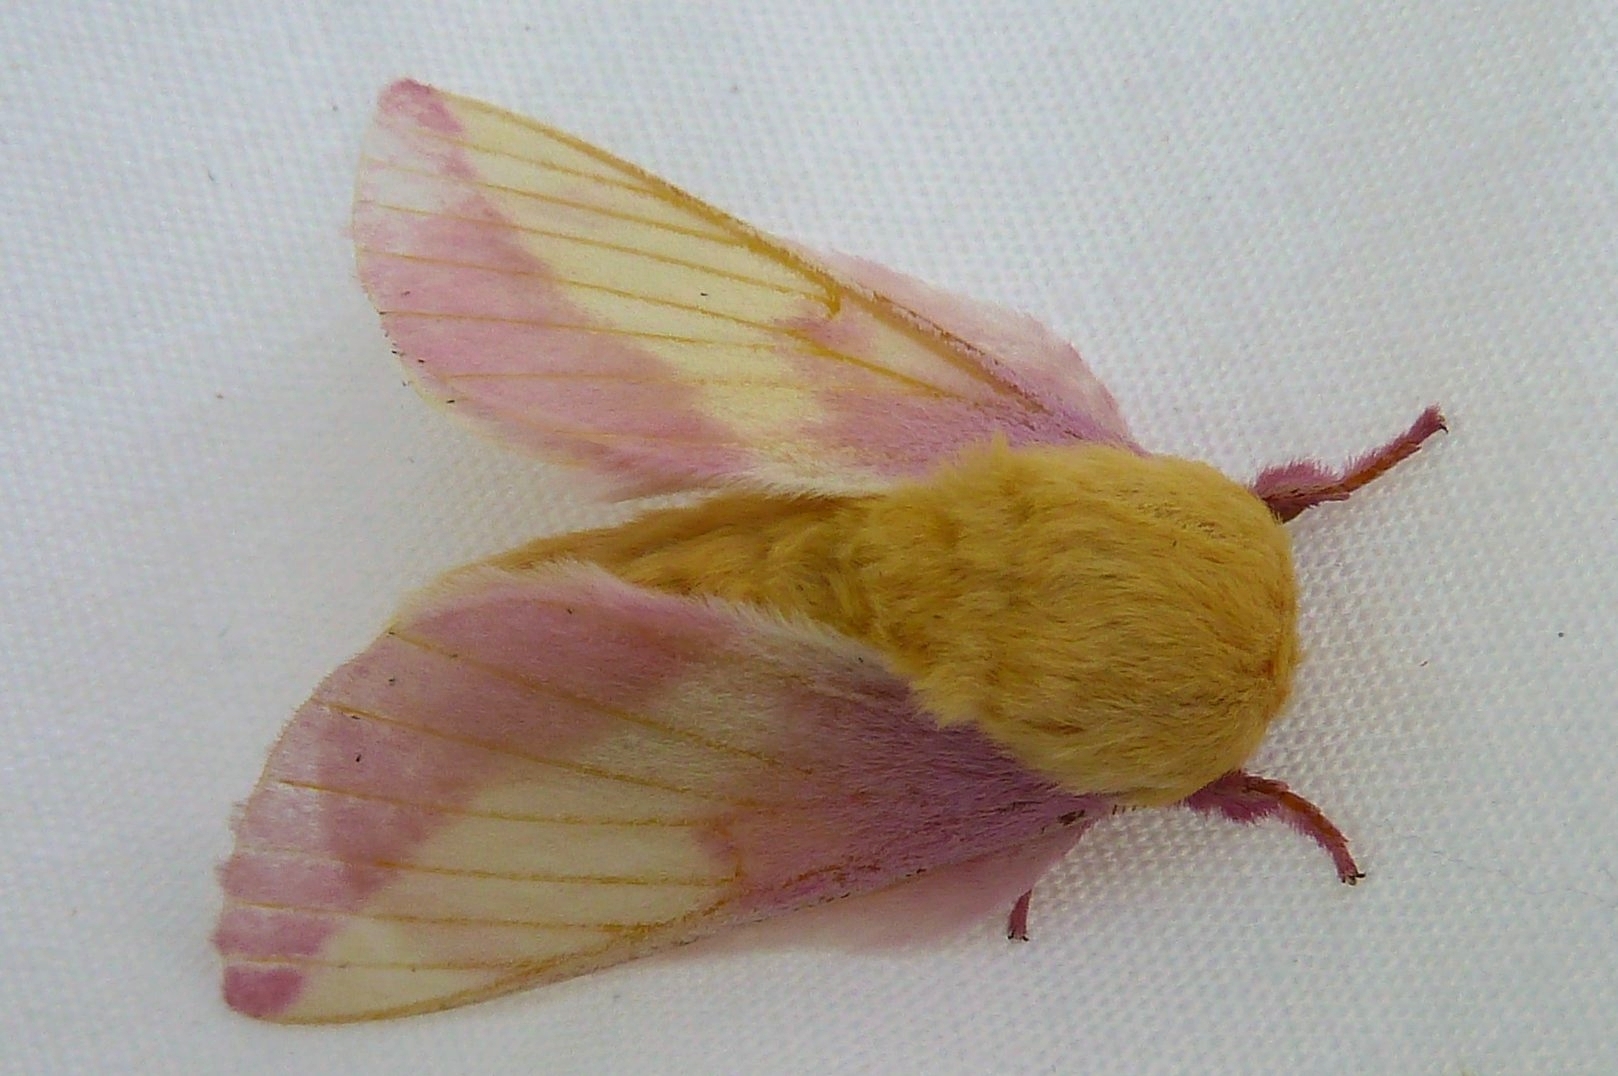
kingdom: Animalia
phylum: Arthropoda
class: Insecta
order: Lepidoptera
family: Saturniidae
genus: Dryocampa
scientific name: Dryocampa rubicunda
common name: Rosy maple moth
